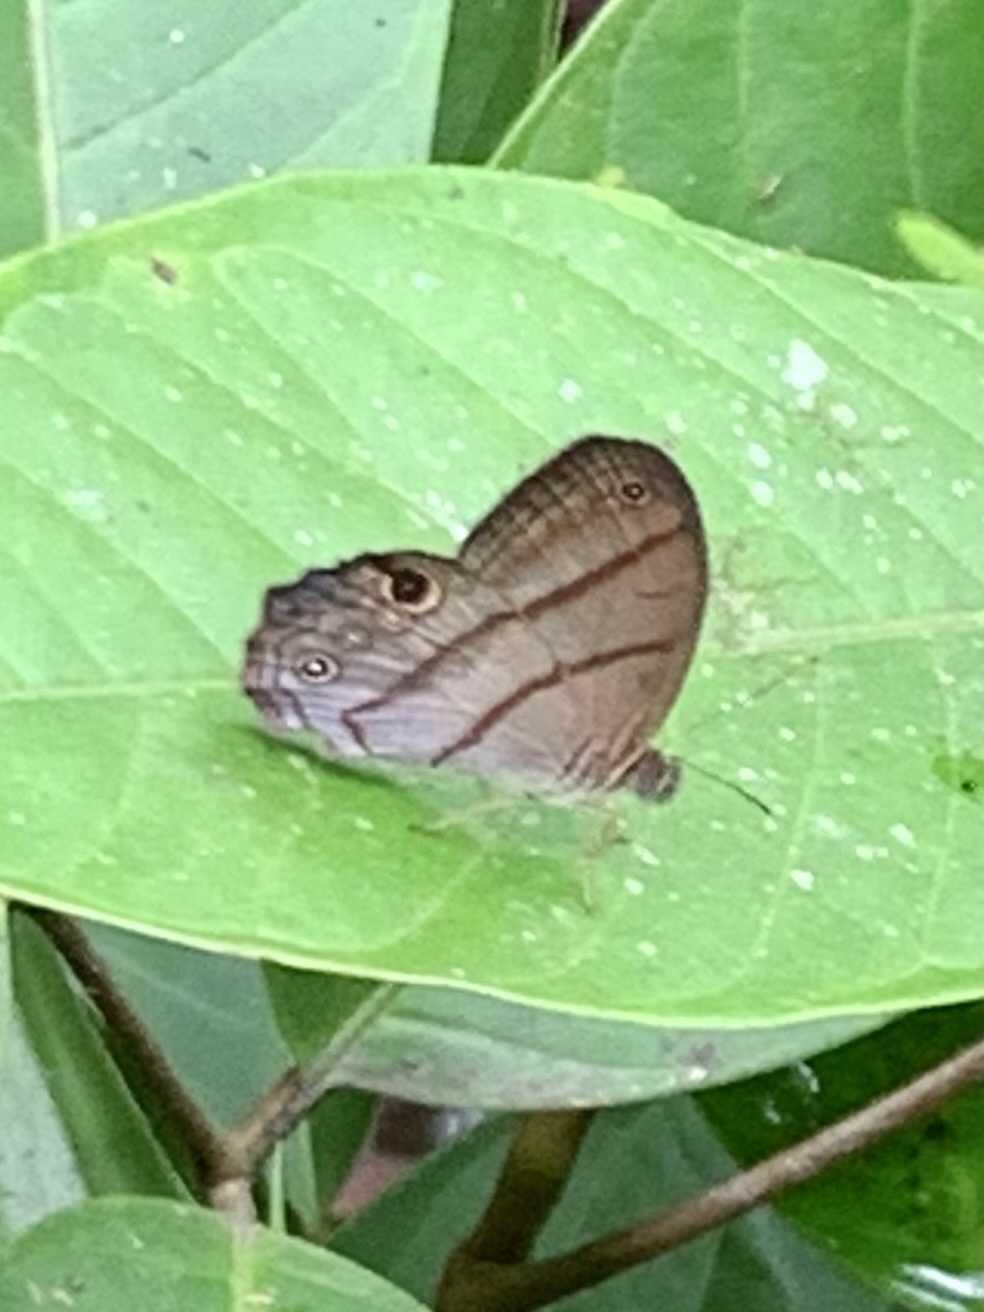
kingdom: Animalia
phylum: Arthropoda
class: Insecta
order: Lepidoptera
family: Nymphalidae
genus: Amiga
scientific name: Amiga arnaca
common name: Blue-topped satyr
